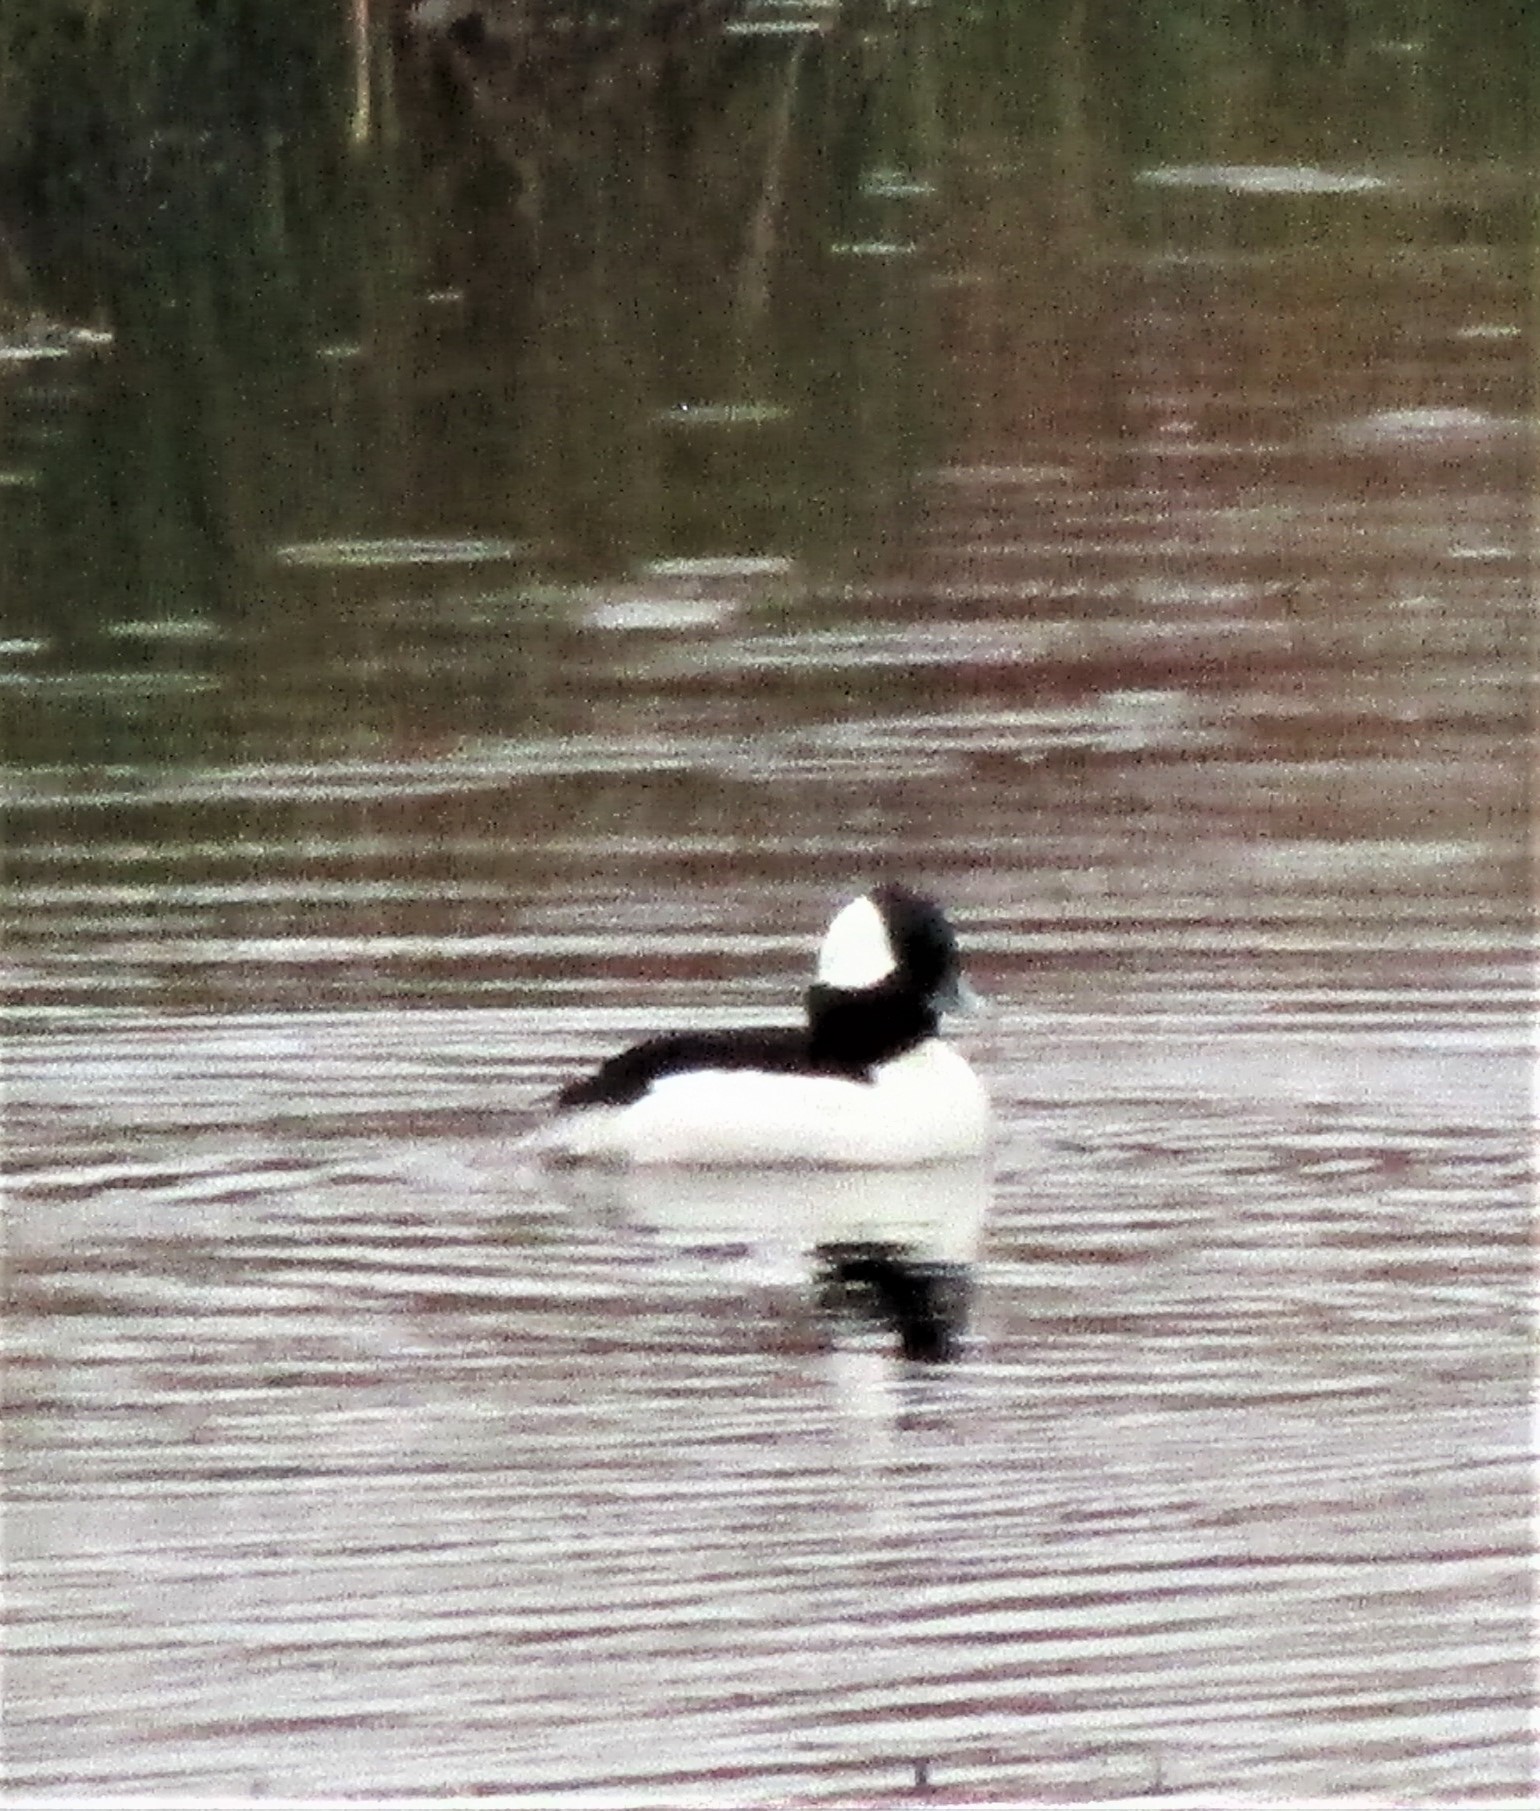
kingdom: Animalia
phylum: Chordata
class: Aves
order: Anseriformes
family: Anatidae
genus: Bucephala
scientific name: Bucephala albeola
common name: Bufflehead
